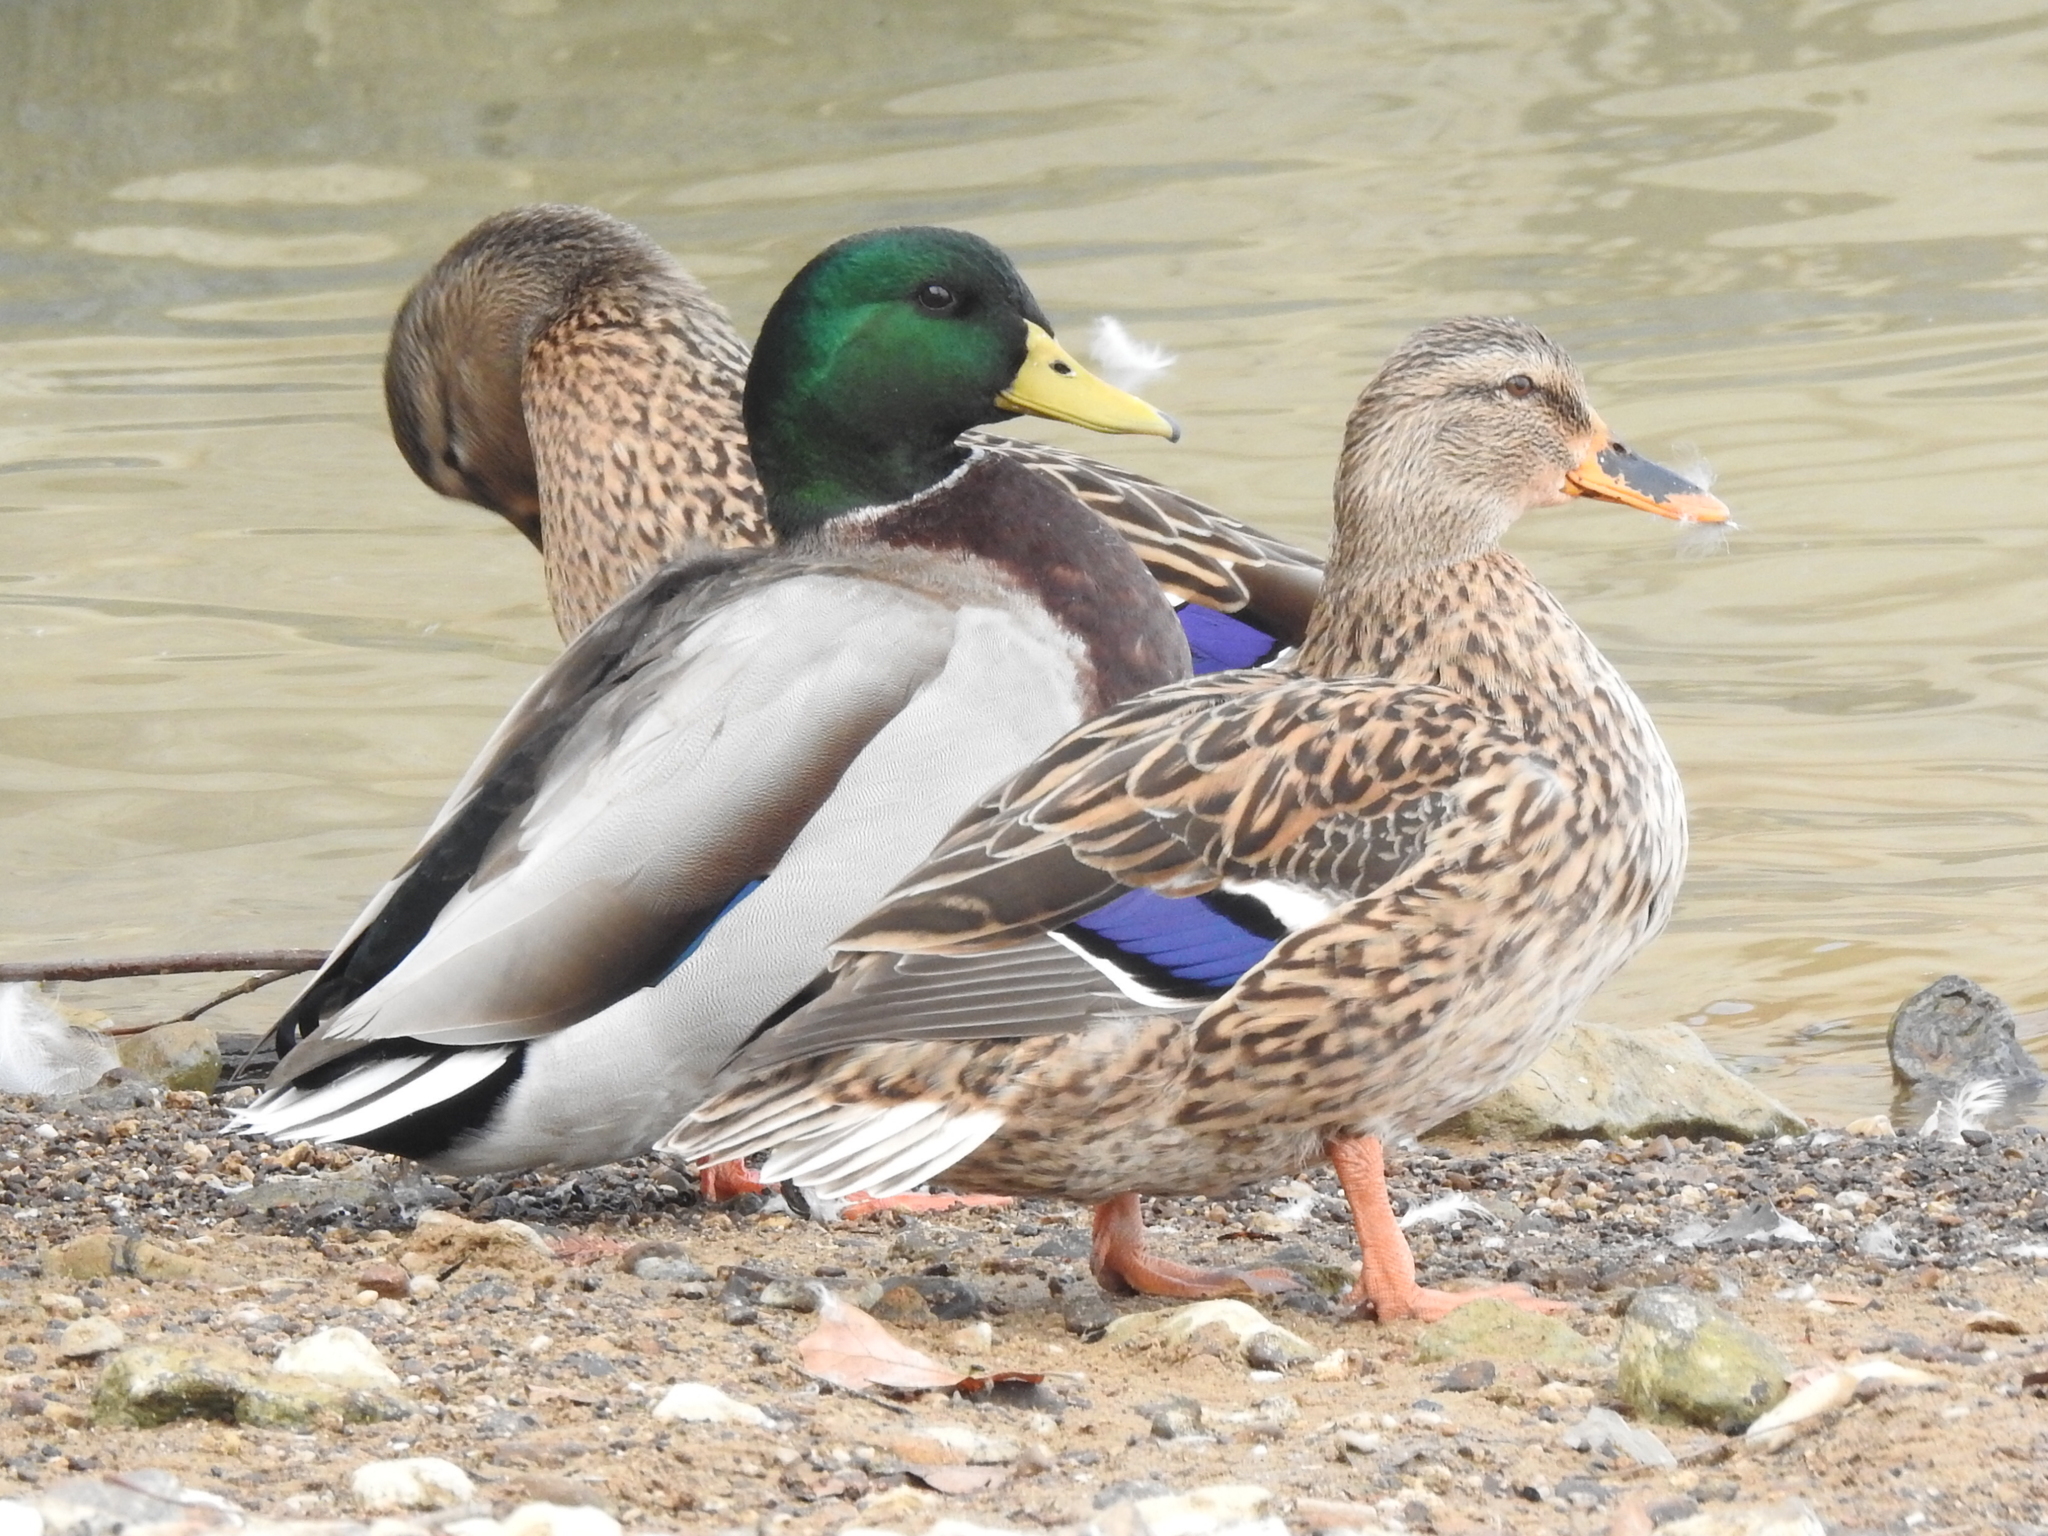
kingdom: Animalia
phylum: Chordata
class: Aves
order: Anseriformes
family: Anatidae
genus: Anas
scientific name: Anas platyrhynchos
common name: Mallard
